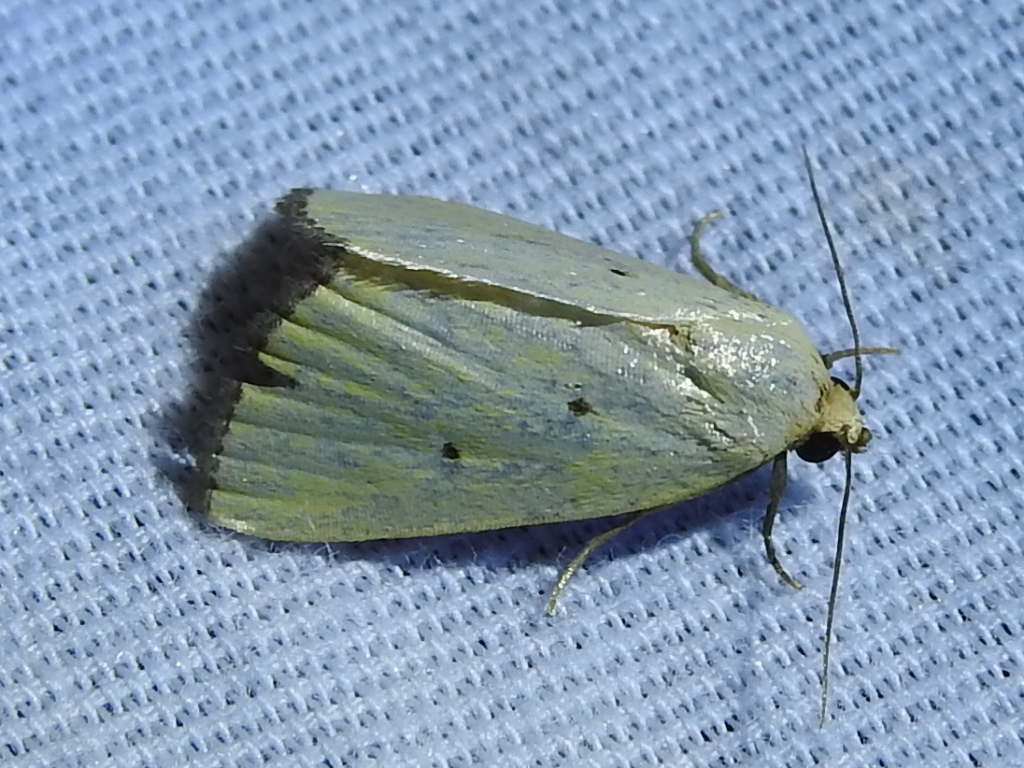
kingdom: Animalia
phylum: Arthropoda
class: Insecta
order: Lepidoptera
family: Noctuidae
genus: Marimatha
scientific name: Marimatha nigrofimbria
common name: Black-bordered lemon moth
